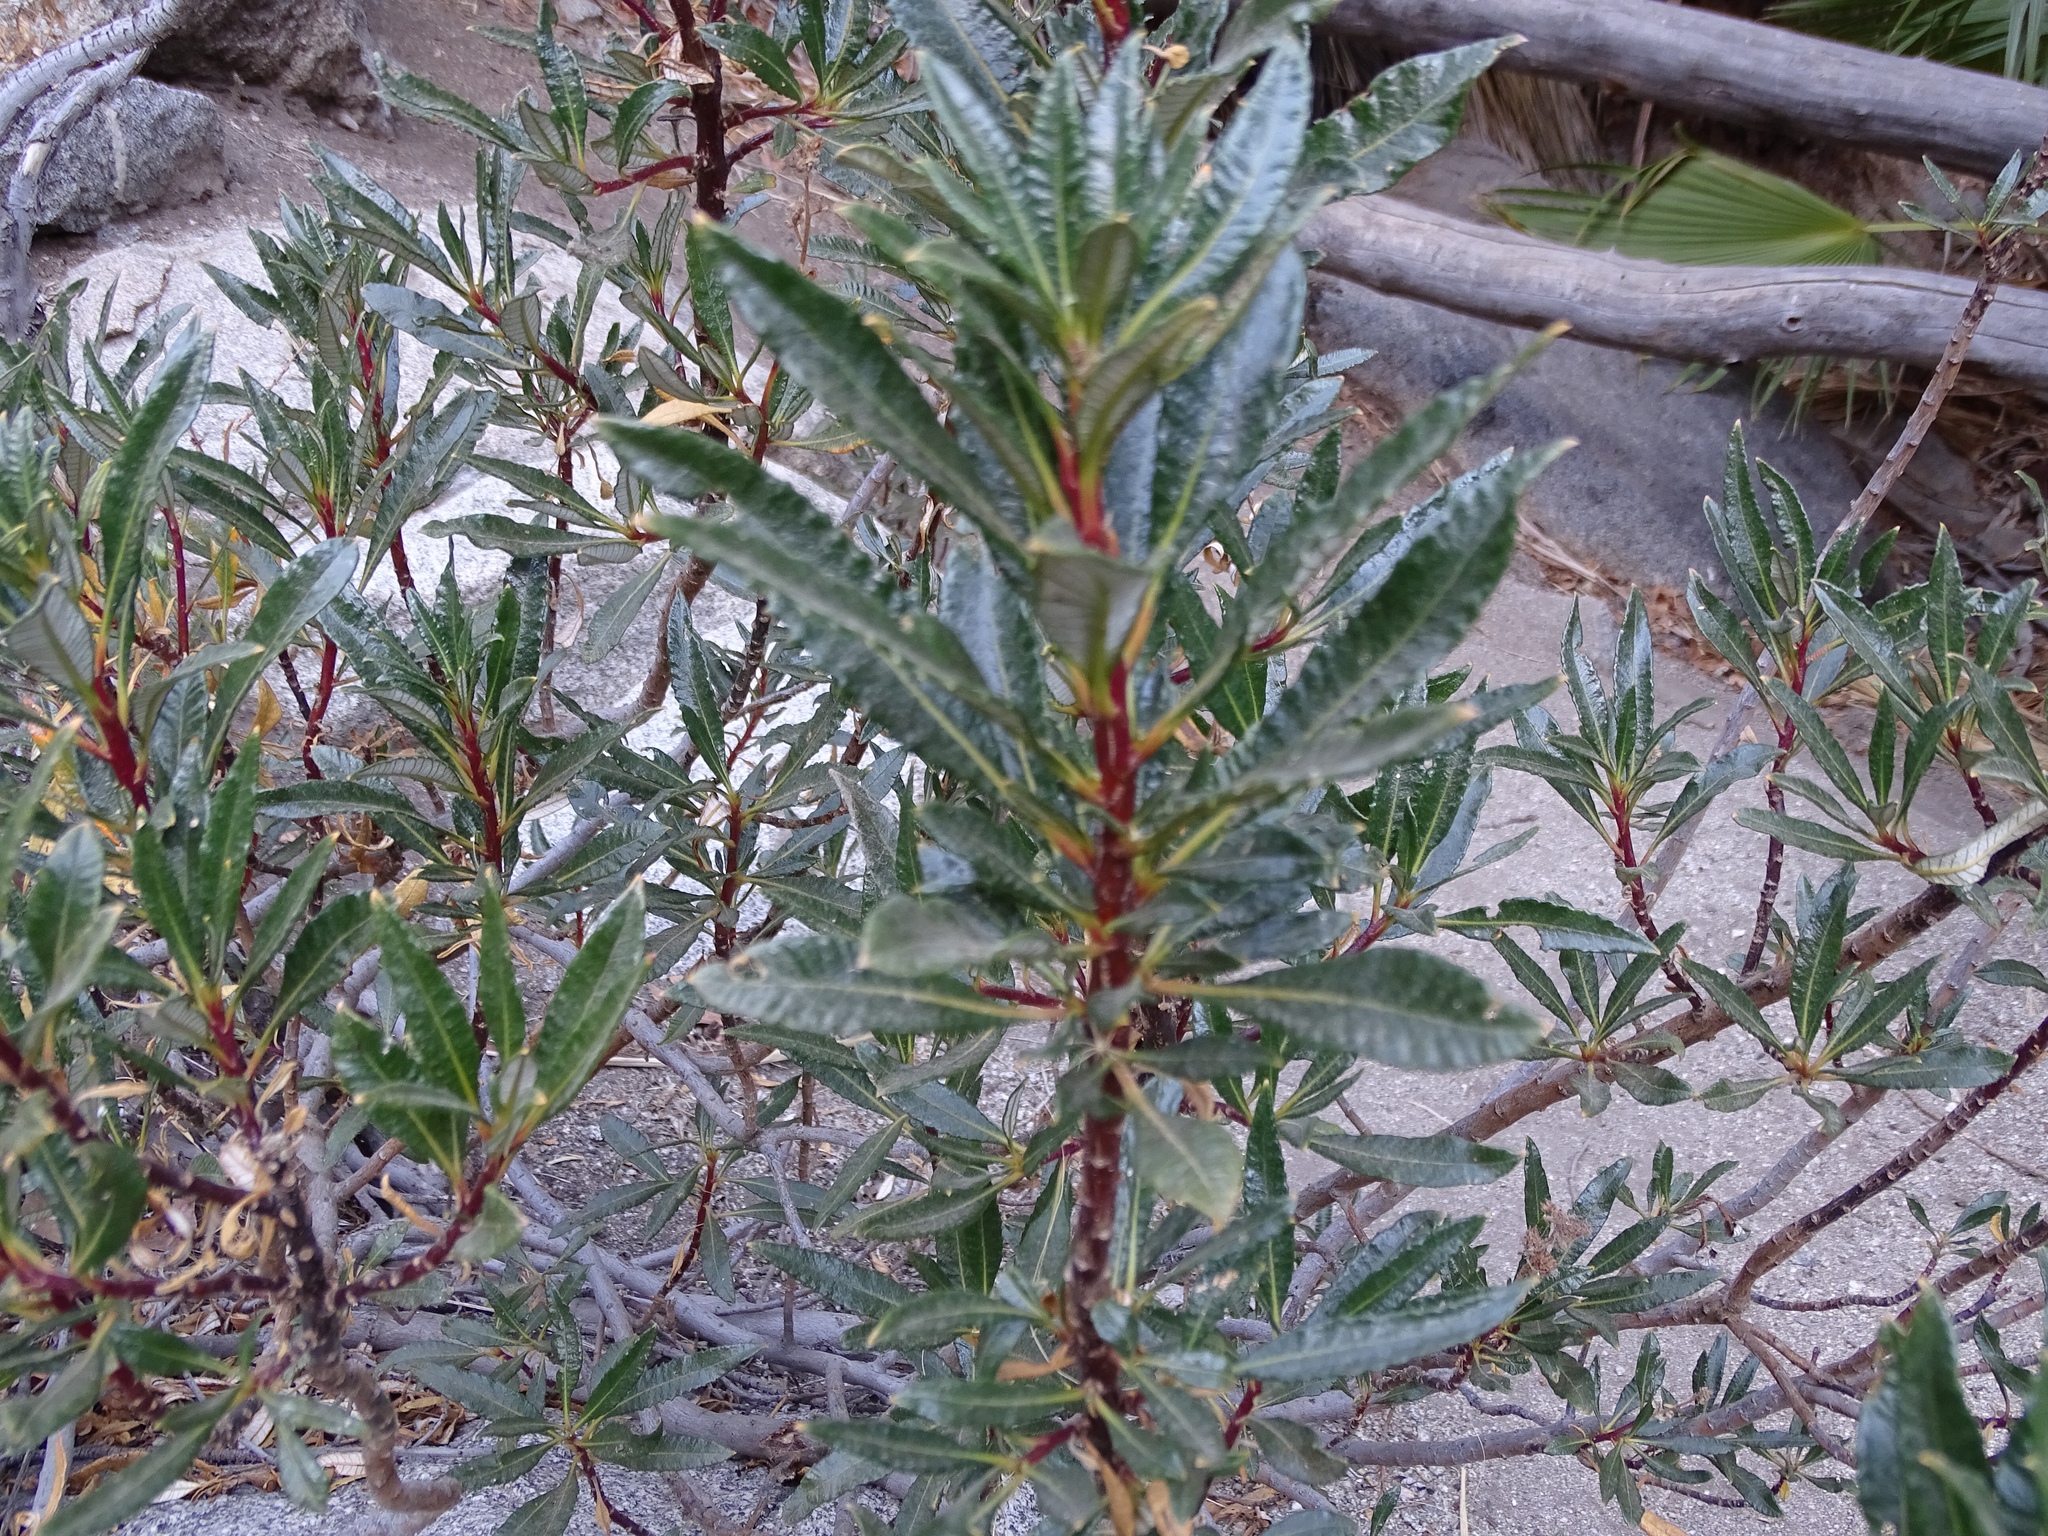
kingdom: Plantae
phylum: Tracheophyta
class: Magnoliopsida
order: Boraginales
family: Namaceae
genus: Eriodictyon
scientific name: Eriodictyon trichocalyx
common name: Hairy yerba-santa
